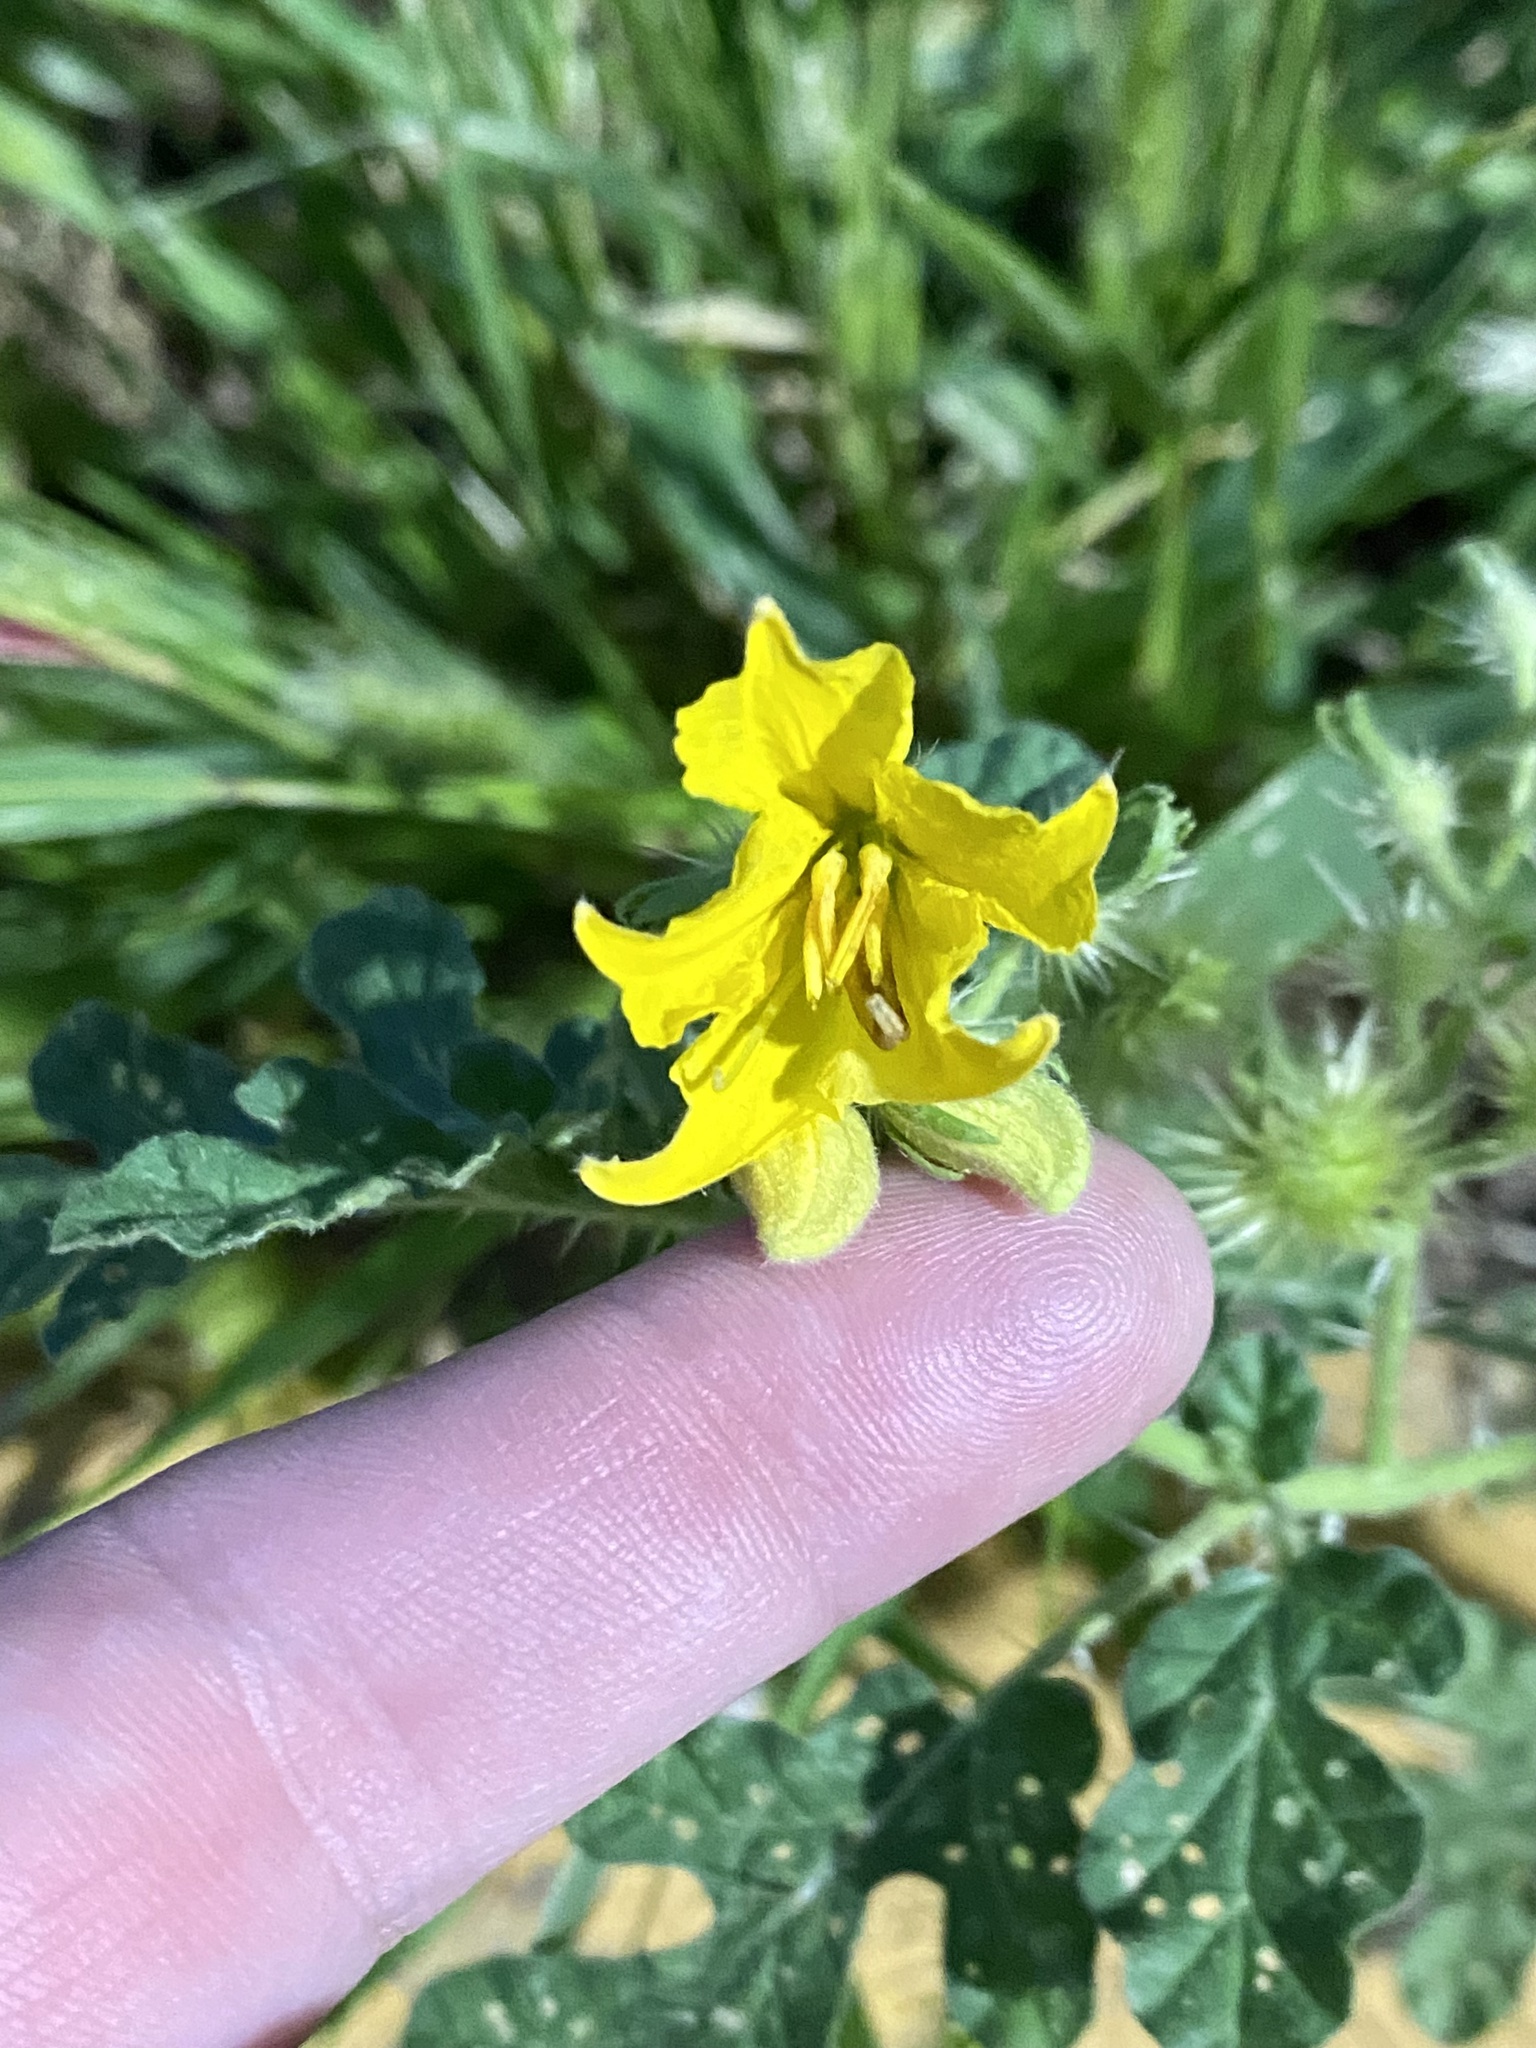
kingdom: Plantae
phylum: Tracheophyta
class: Magnoliopsida
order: Solanales
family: Solanaceae
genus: Solanum
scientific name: Solanum angustifolium
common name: Buffalobur nightshade
